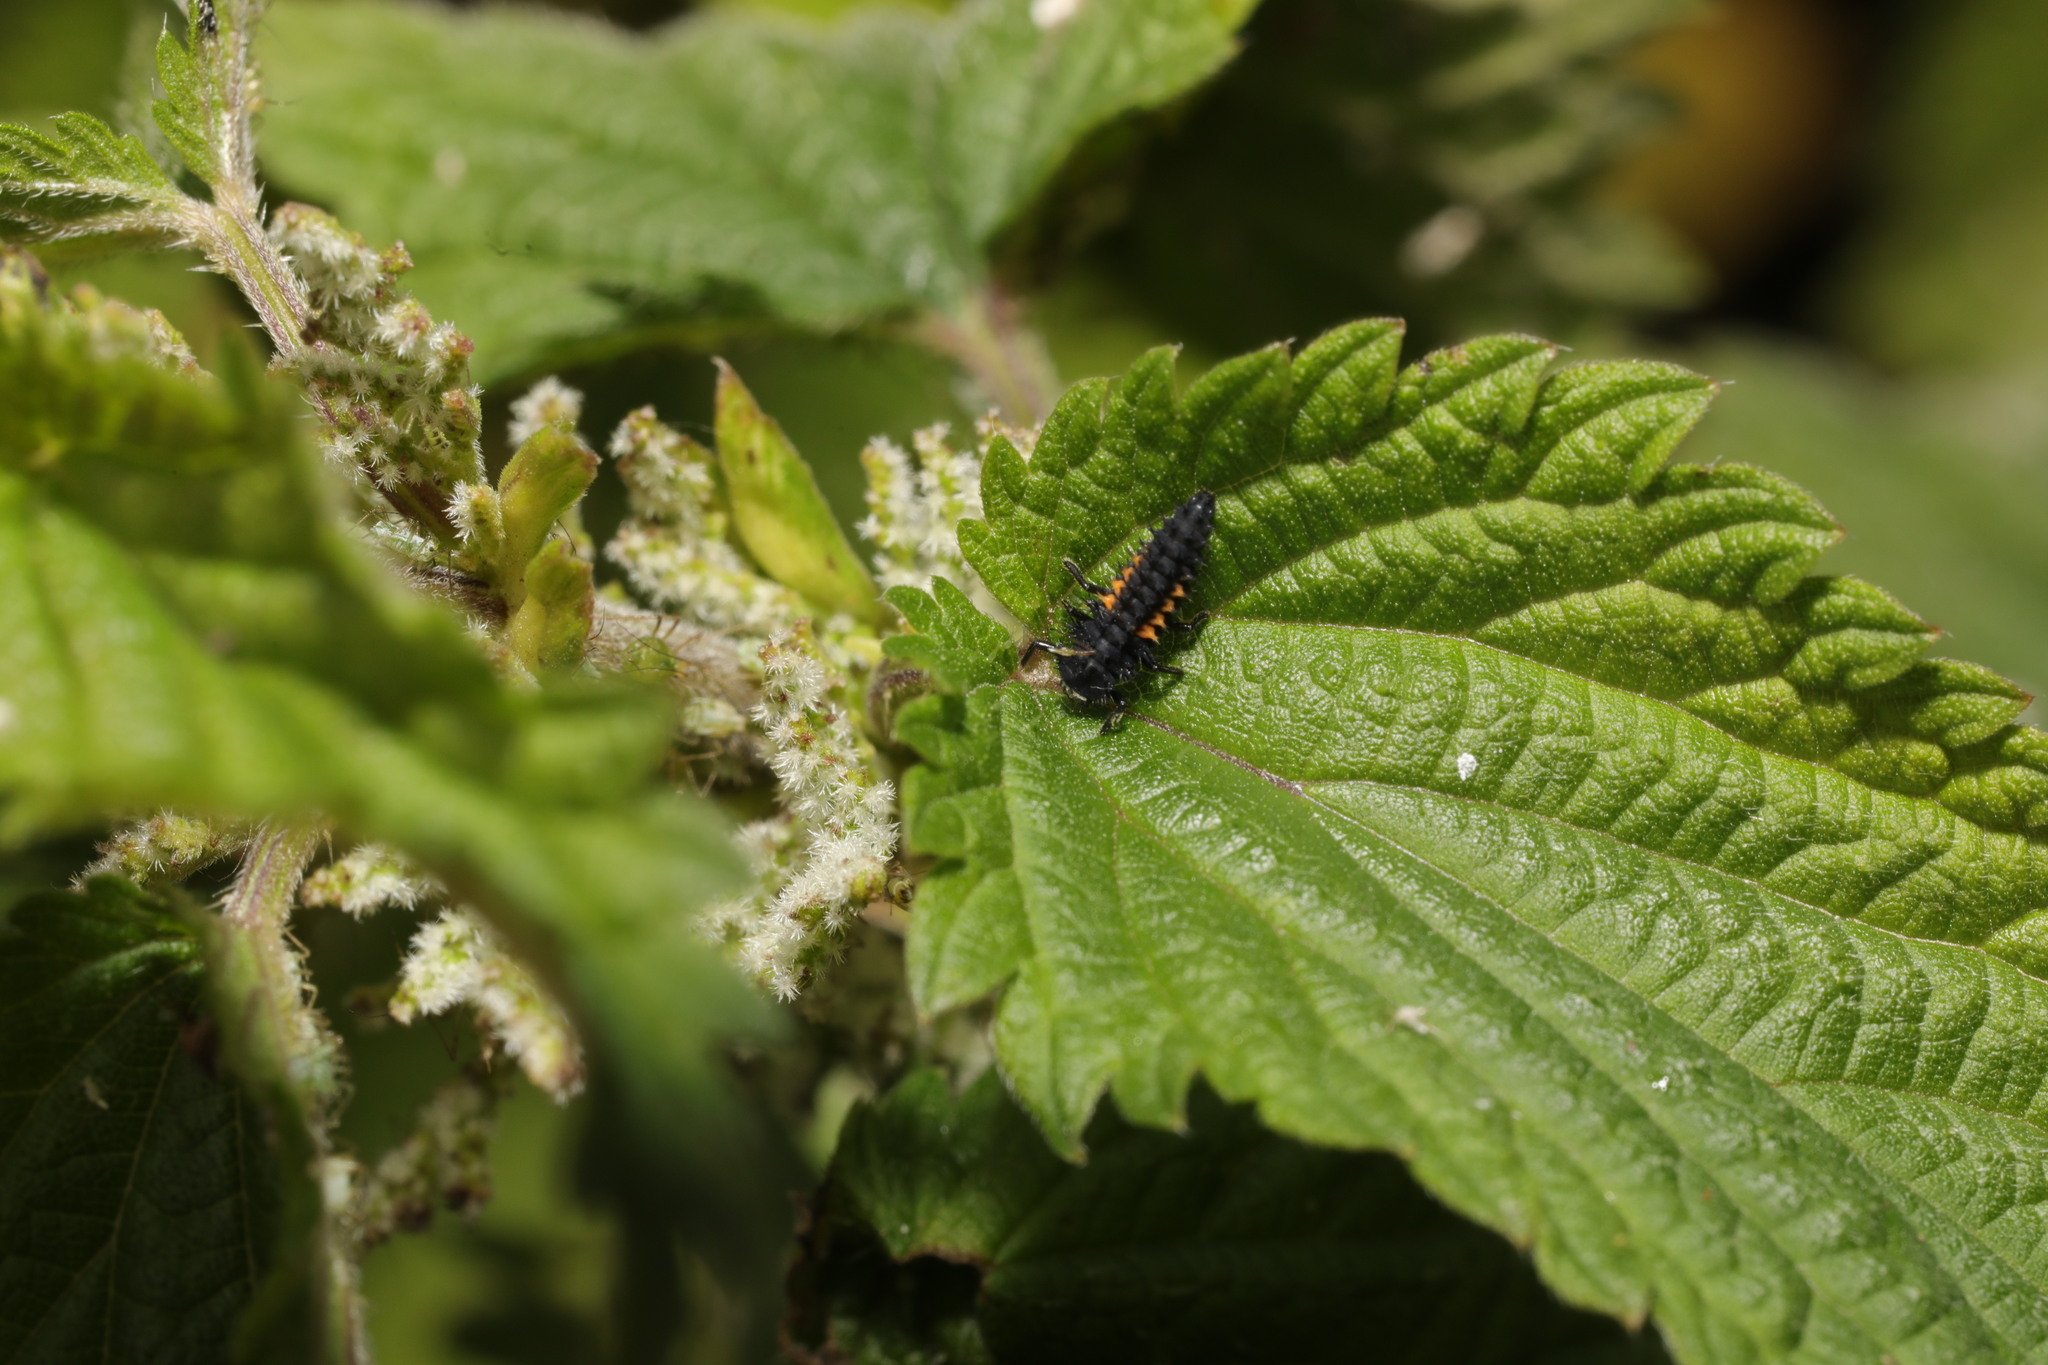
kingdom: Animalia
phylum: Arthropoda
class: Insecta
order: Coleoptera
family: Coccinellidae
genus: Harmonia
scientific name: Harmonia axyridis
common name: Harlequin ladybird
